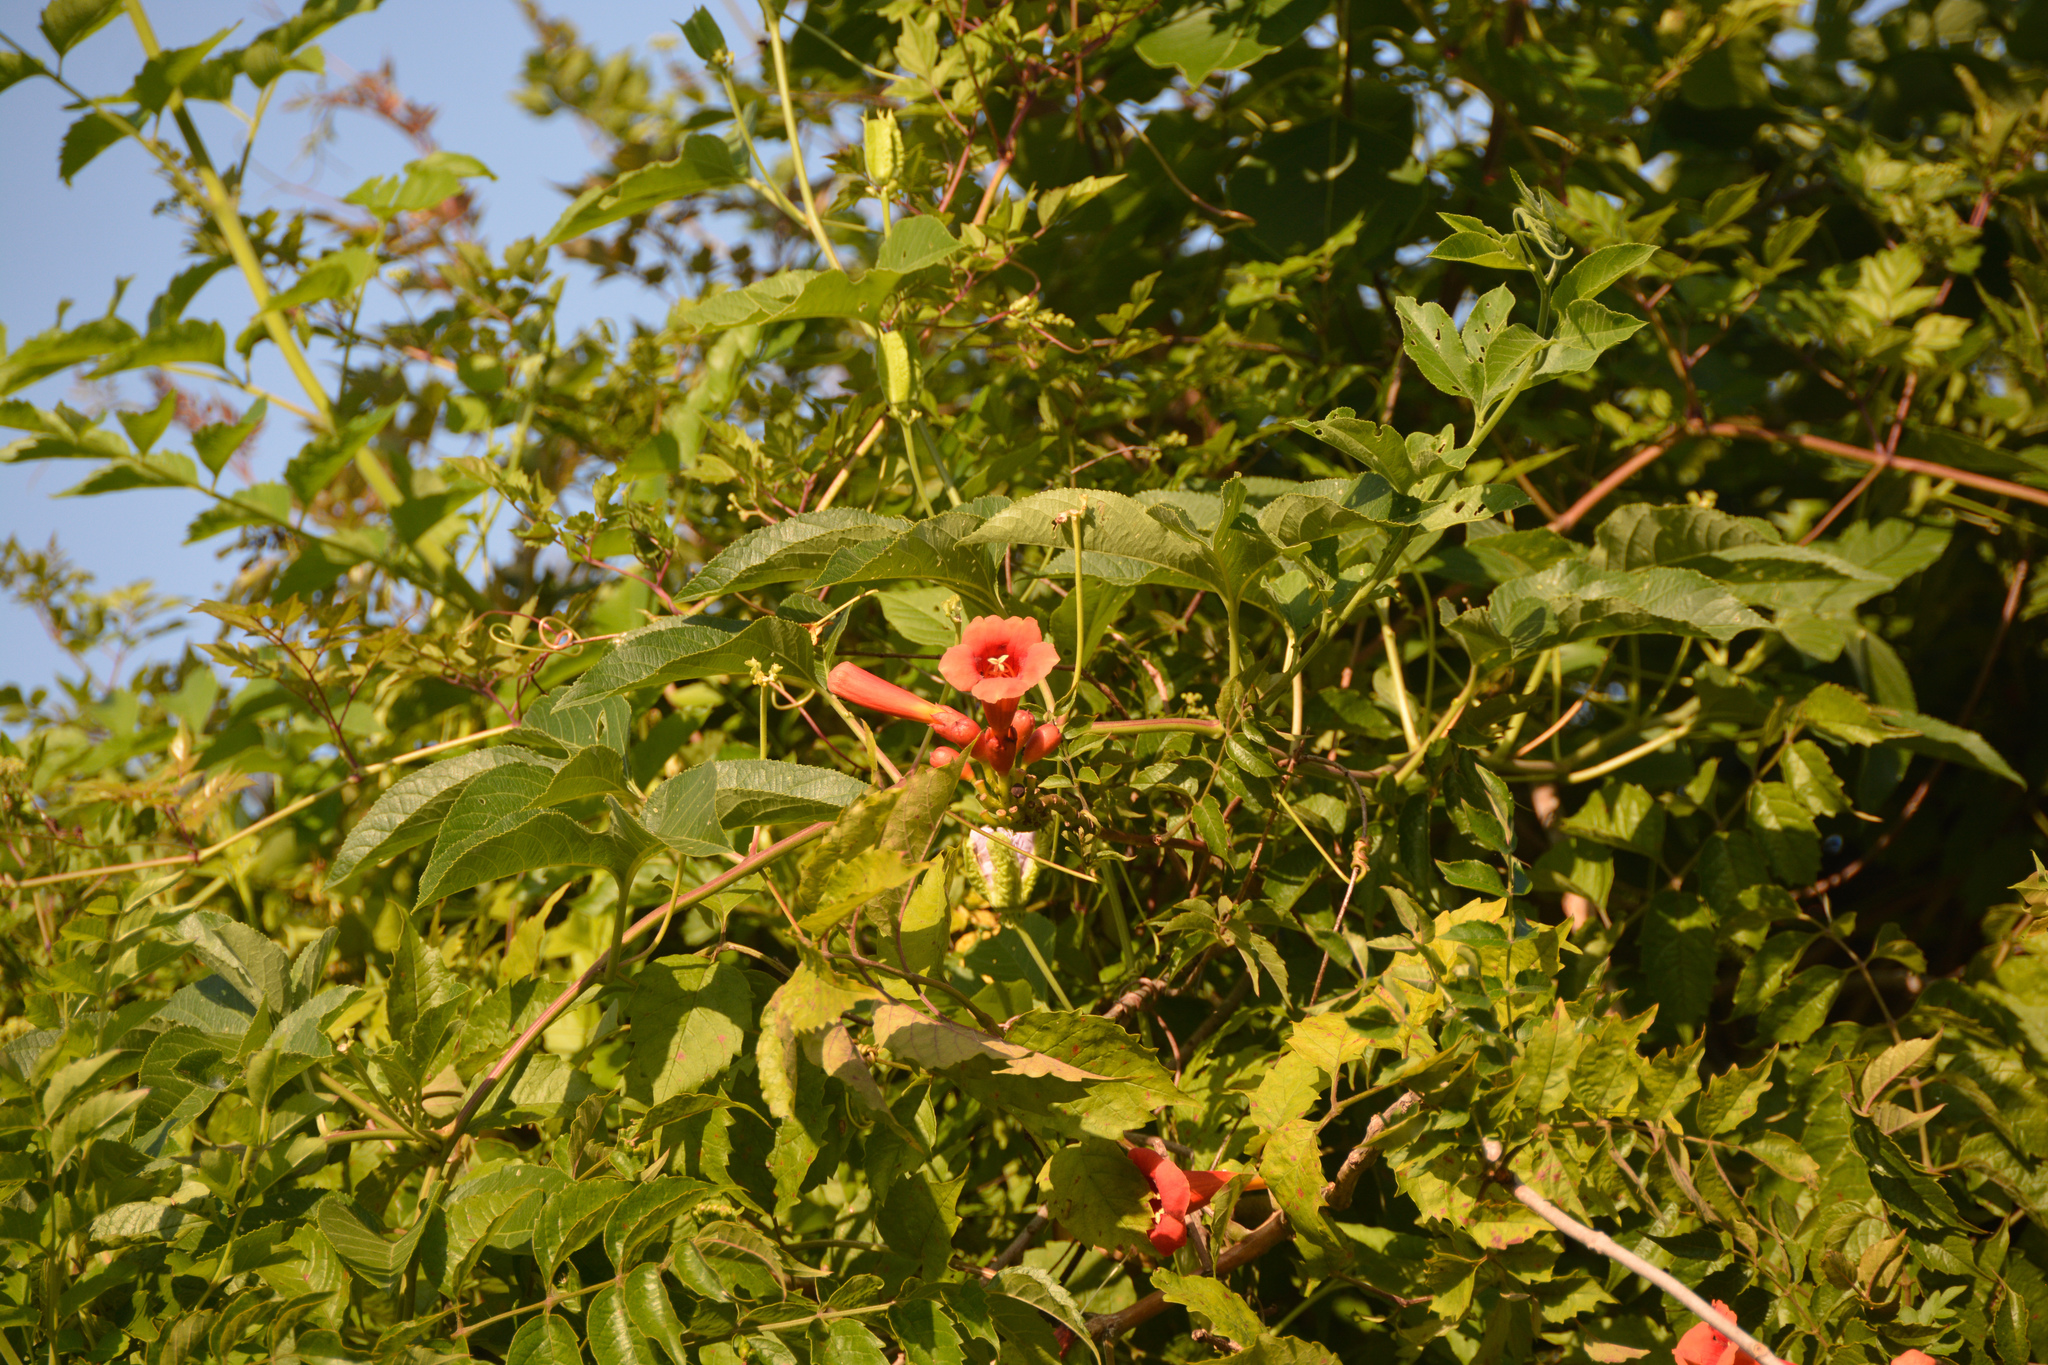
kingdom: Plantae
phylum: Tracheophyta
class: Magnoliopsida
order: Lamiales
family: Bignoniaceae
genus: Campsis
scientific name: Campsis radicans
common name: Trumpet-creeper
